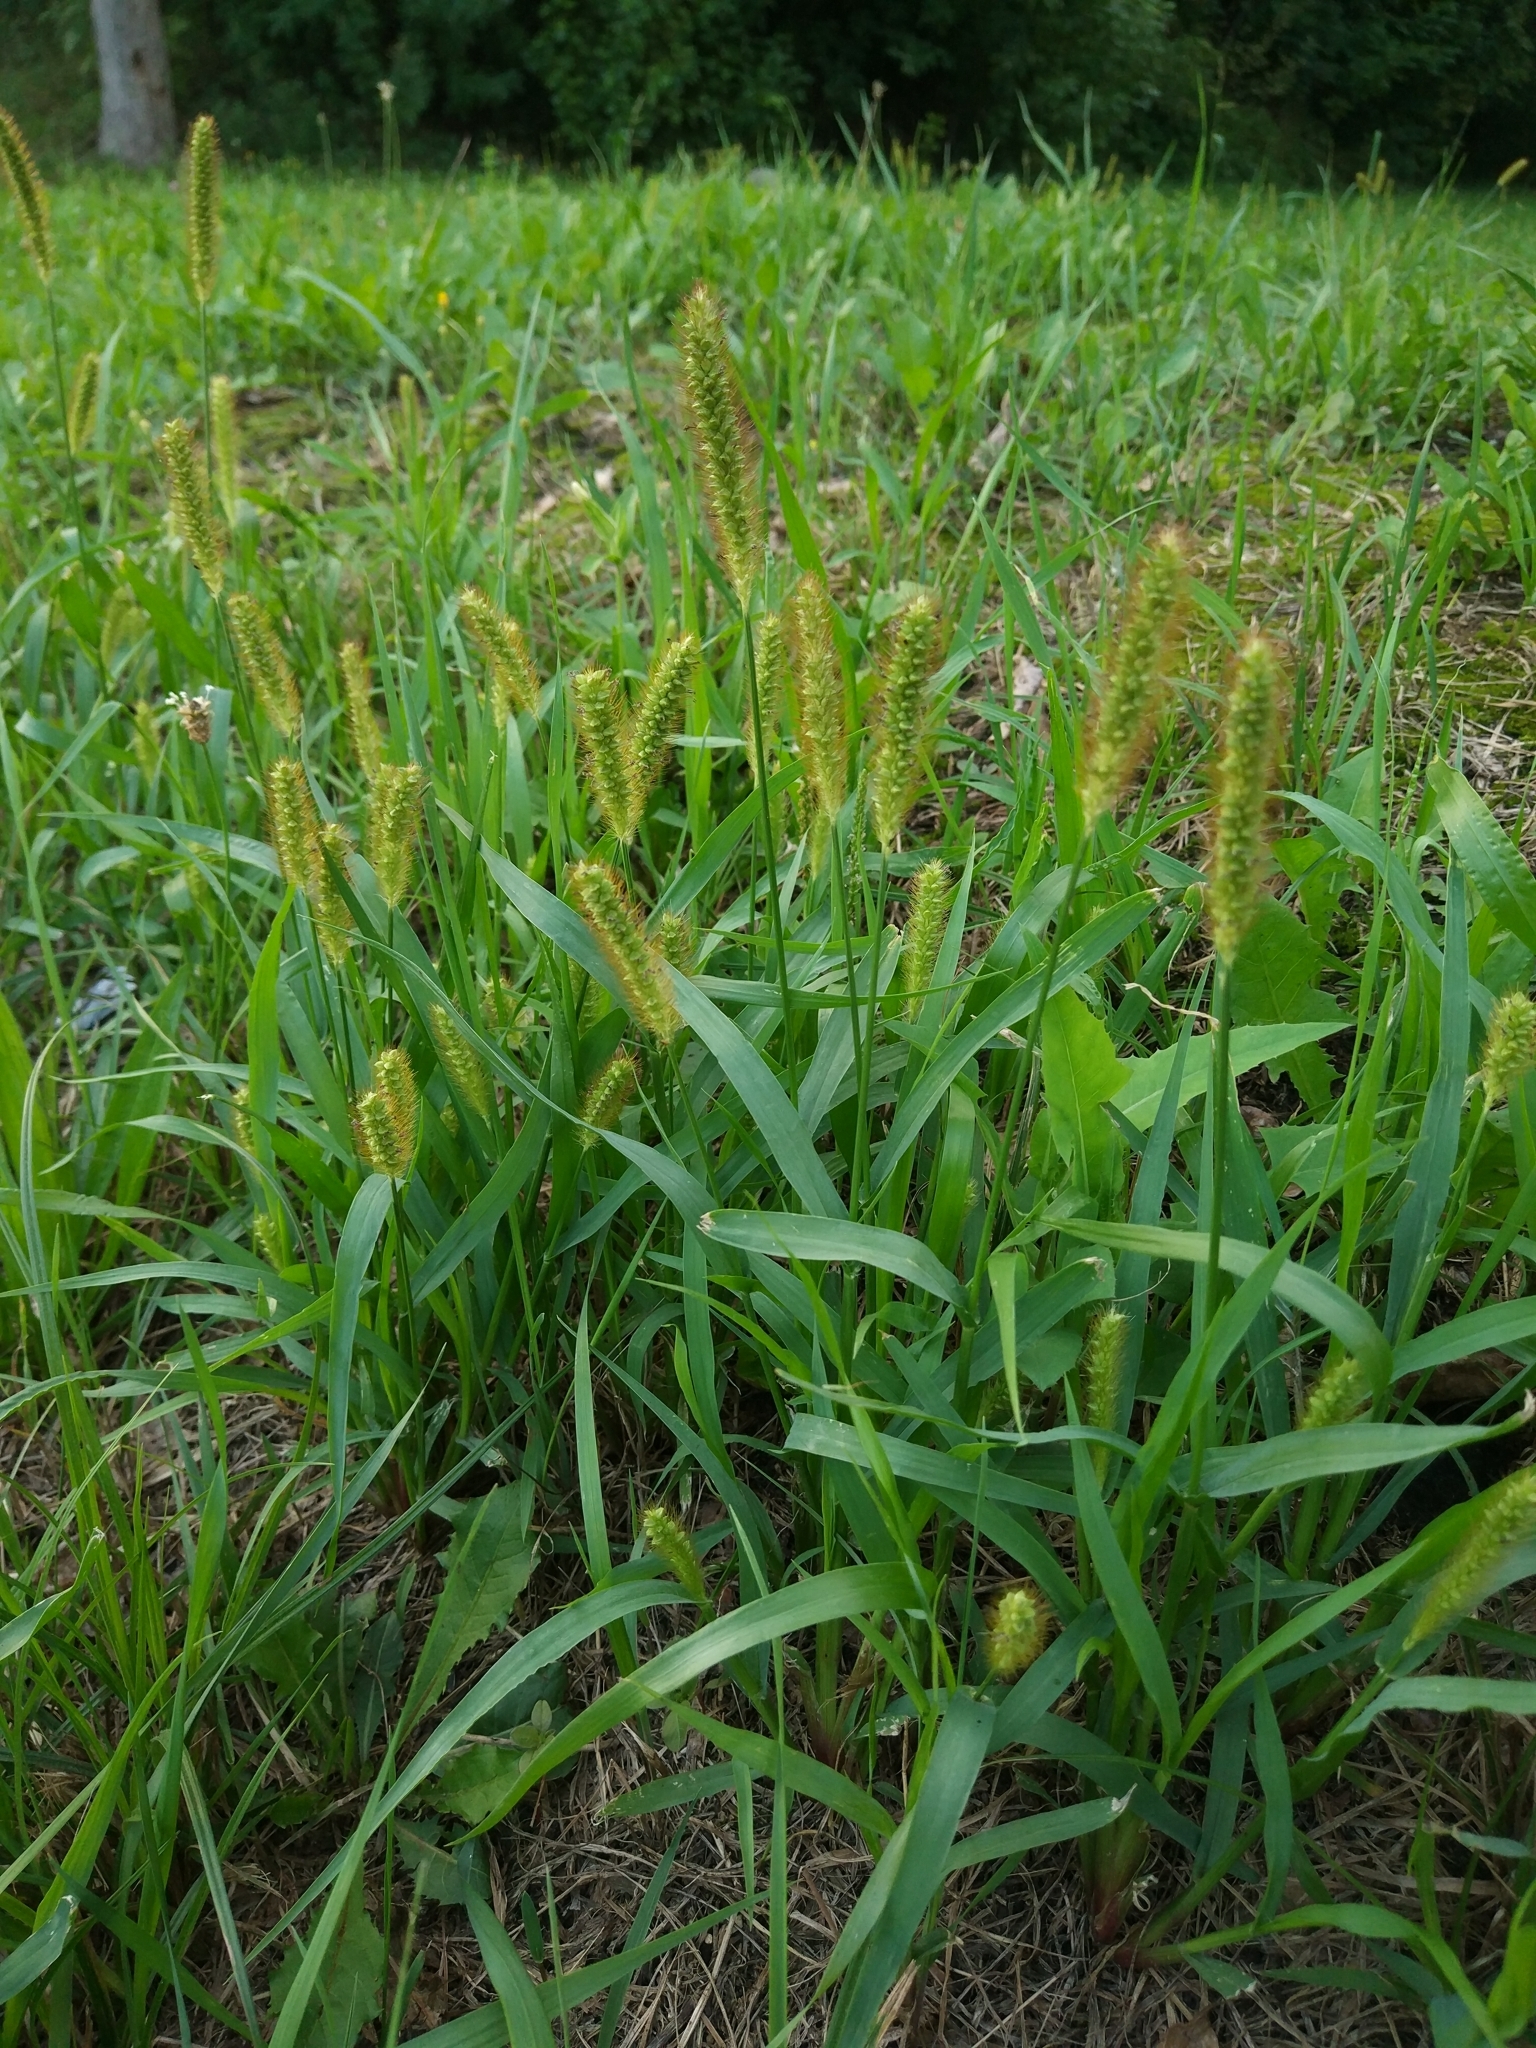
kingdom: Plantae
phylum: Tracheophyta
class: Liliopsida
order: Poales
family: Poaceae
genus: Setaria
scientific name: Setaria pumila
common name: Yellow bristle-grass
